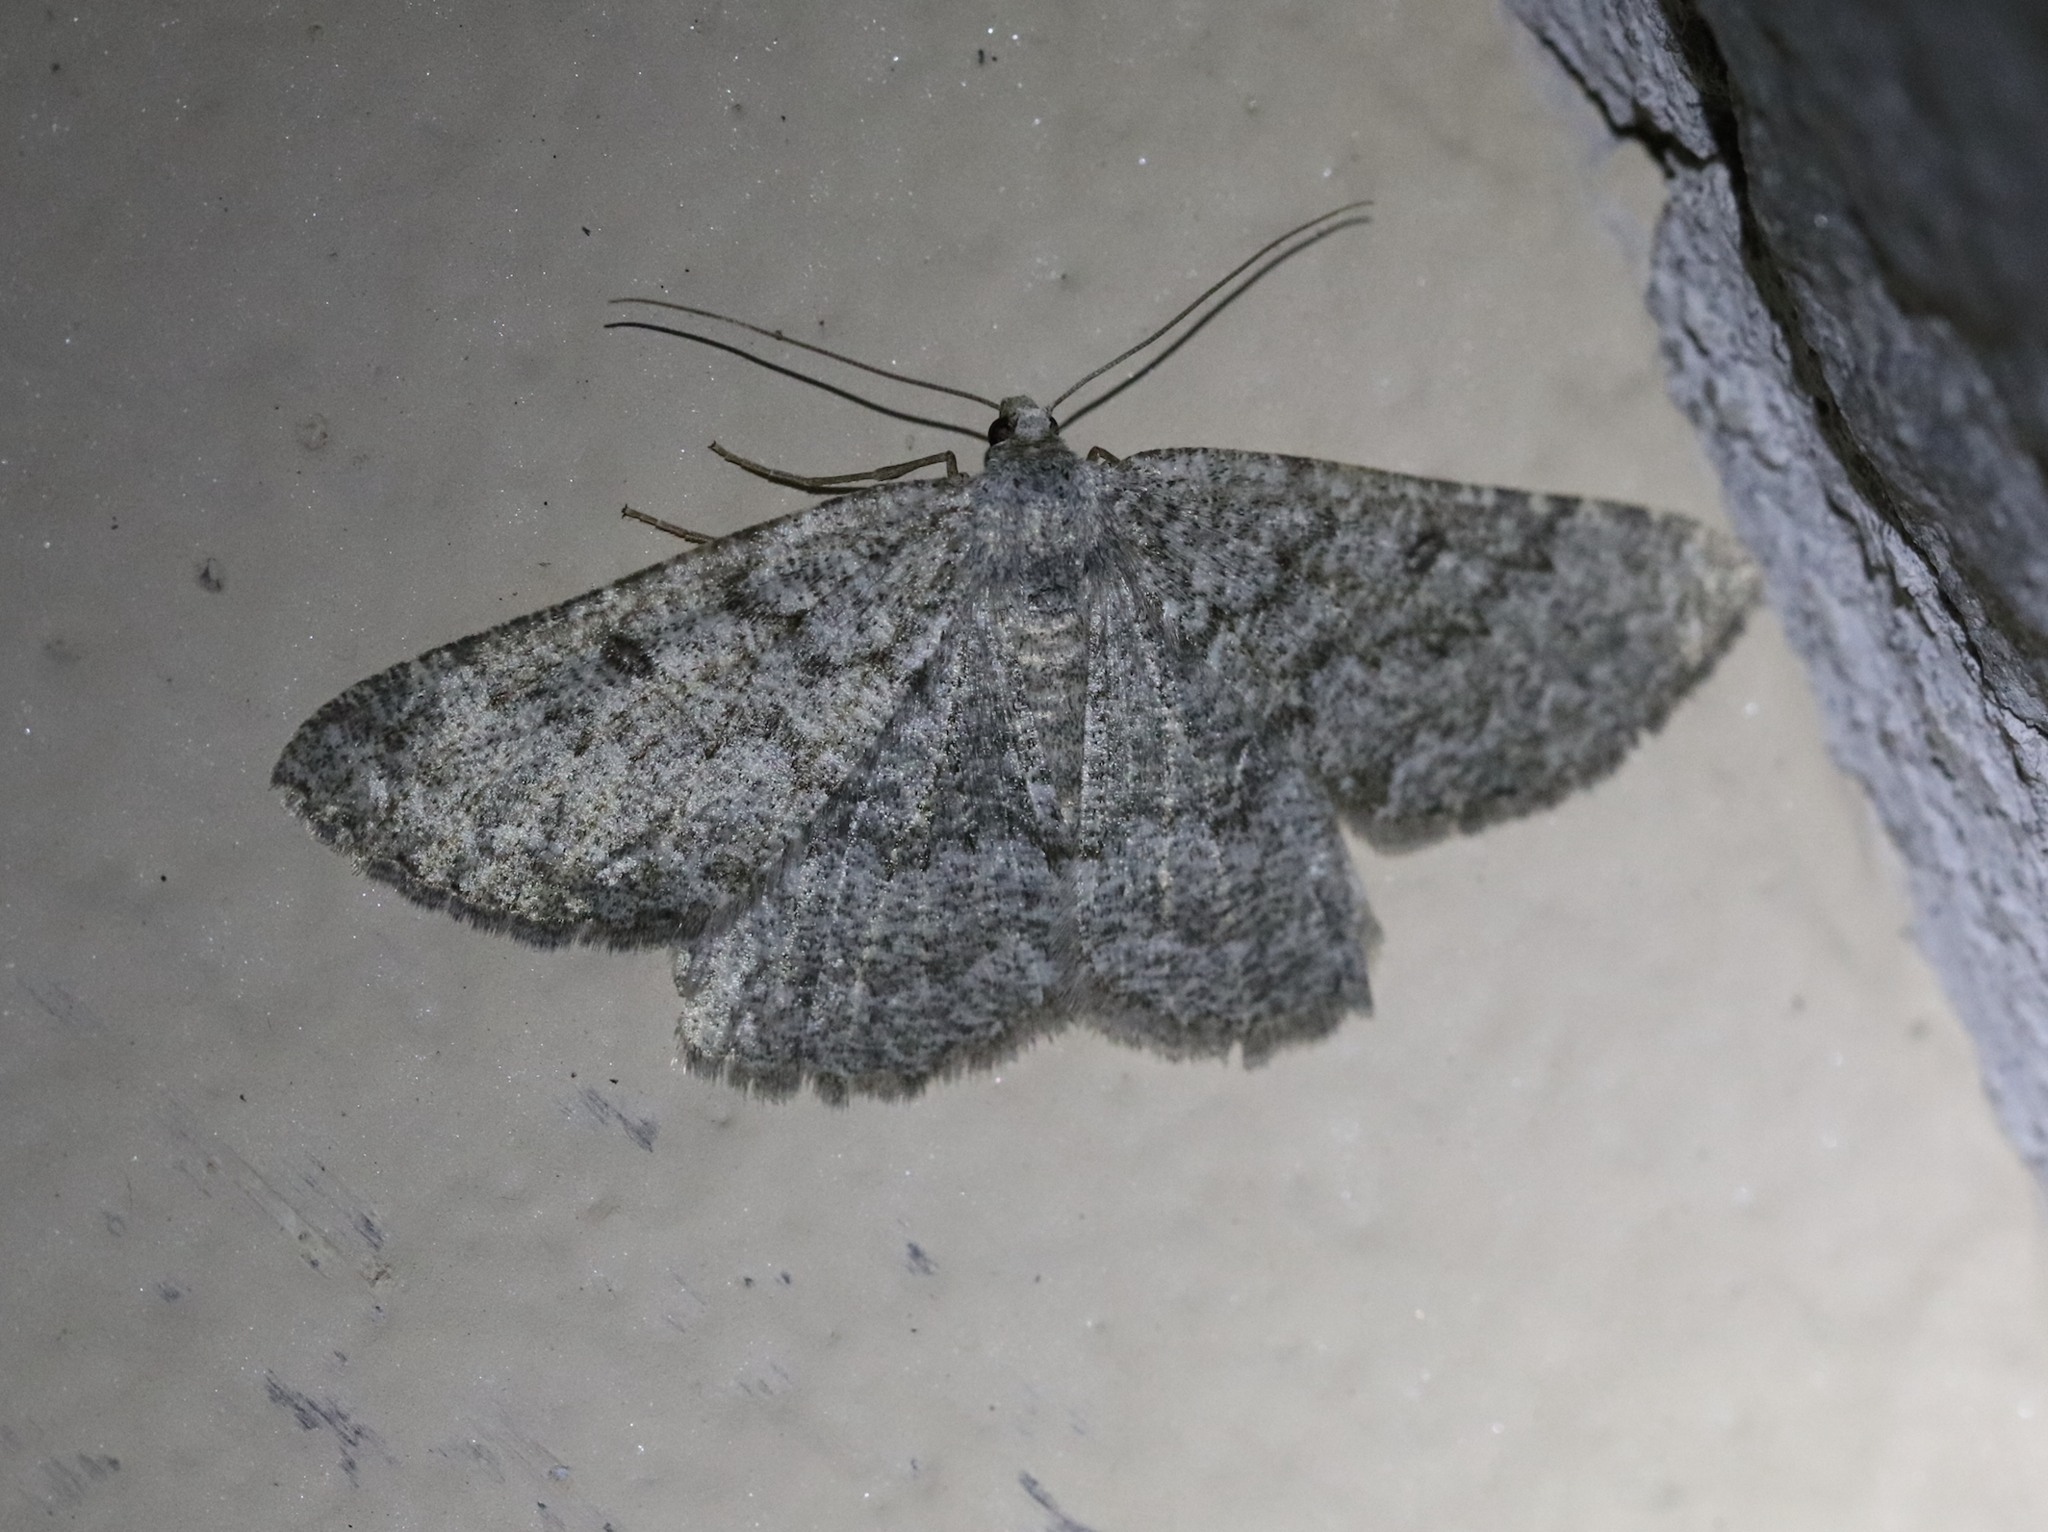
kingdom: Animalia
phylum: Arthropoda
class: Insecta
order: Lepidoptera
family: Geometridae
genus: Gnophos
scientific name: Gnophos obfuscata
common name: Scottish annulet
